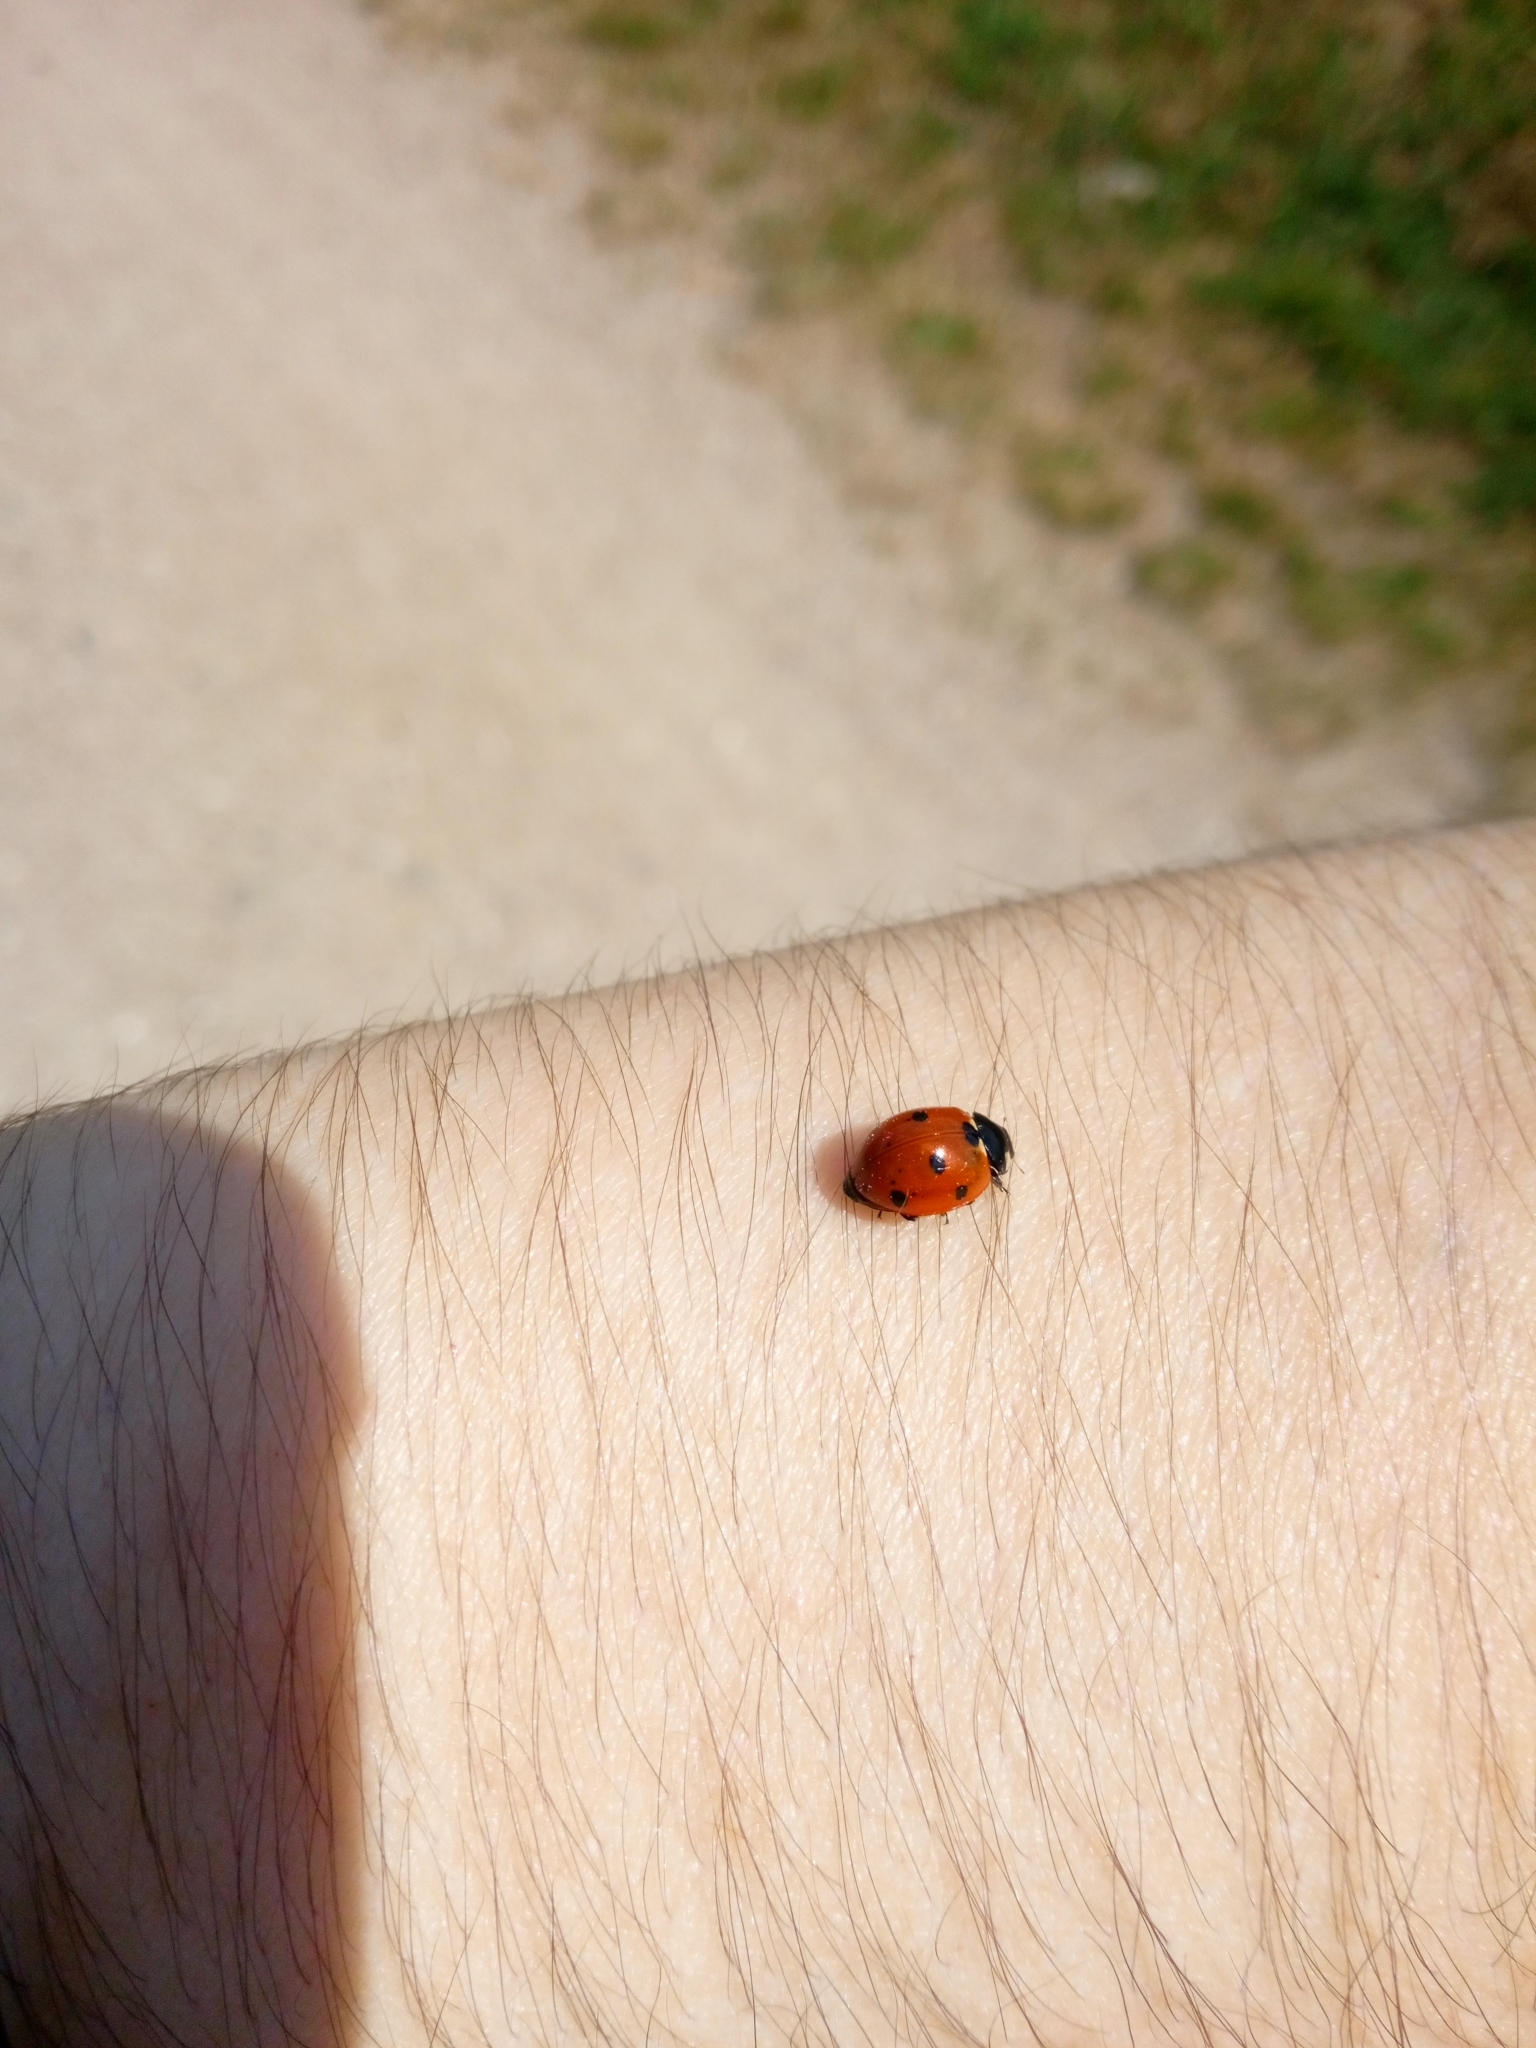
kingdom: Animalia
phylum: Arthropoda
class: Insecta
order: Coleoptera
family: Coccinellidae
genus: Coccinella
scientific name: Coccinella septempunctata
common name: Sevenspotted lady beetle
